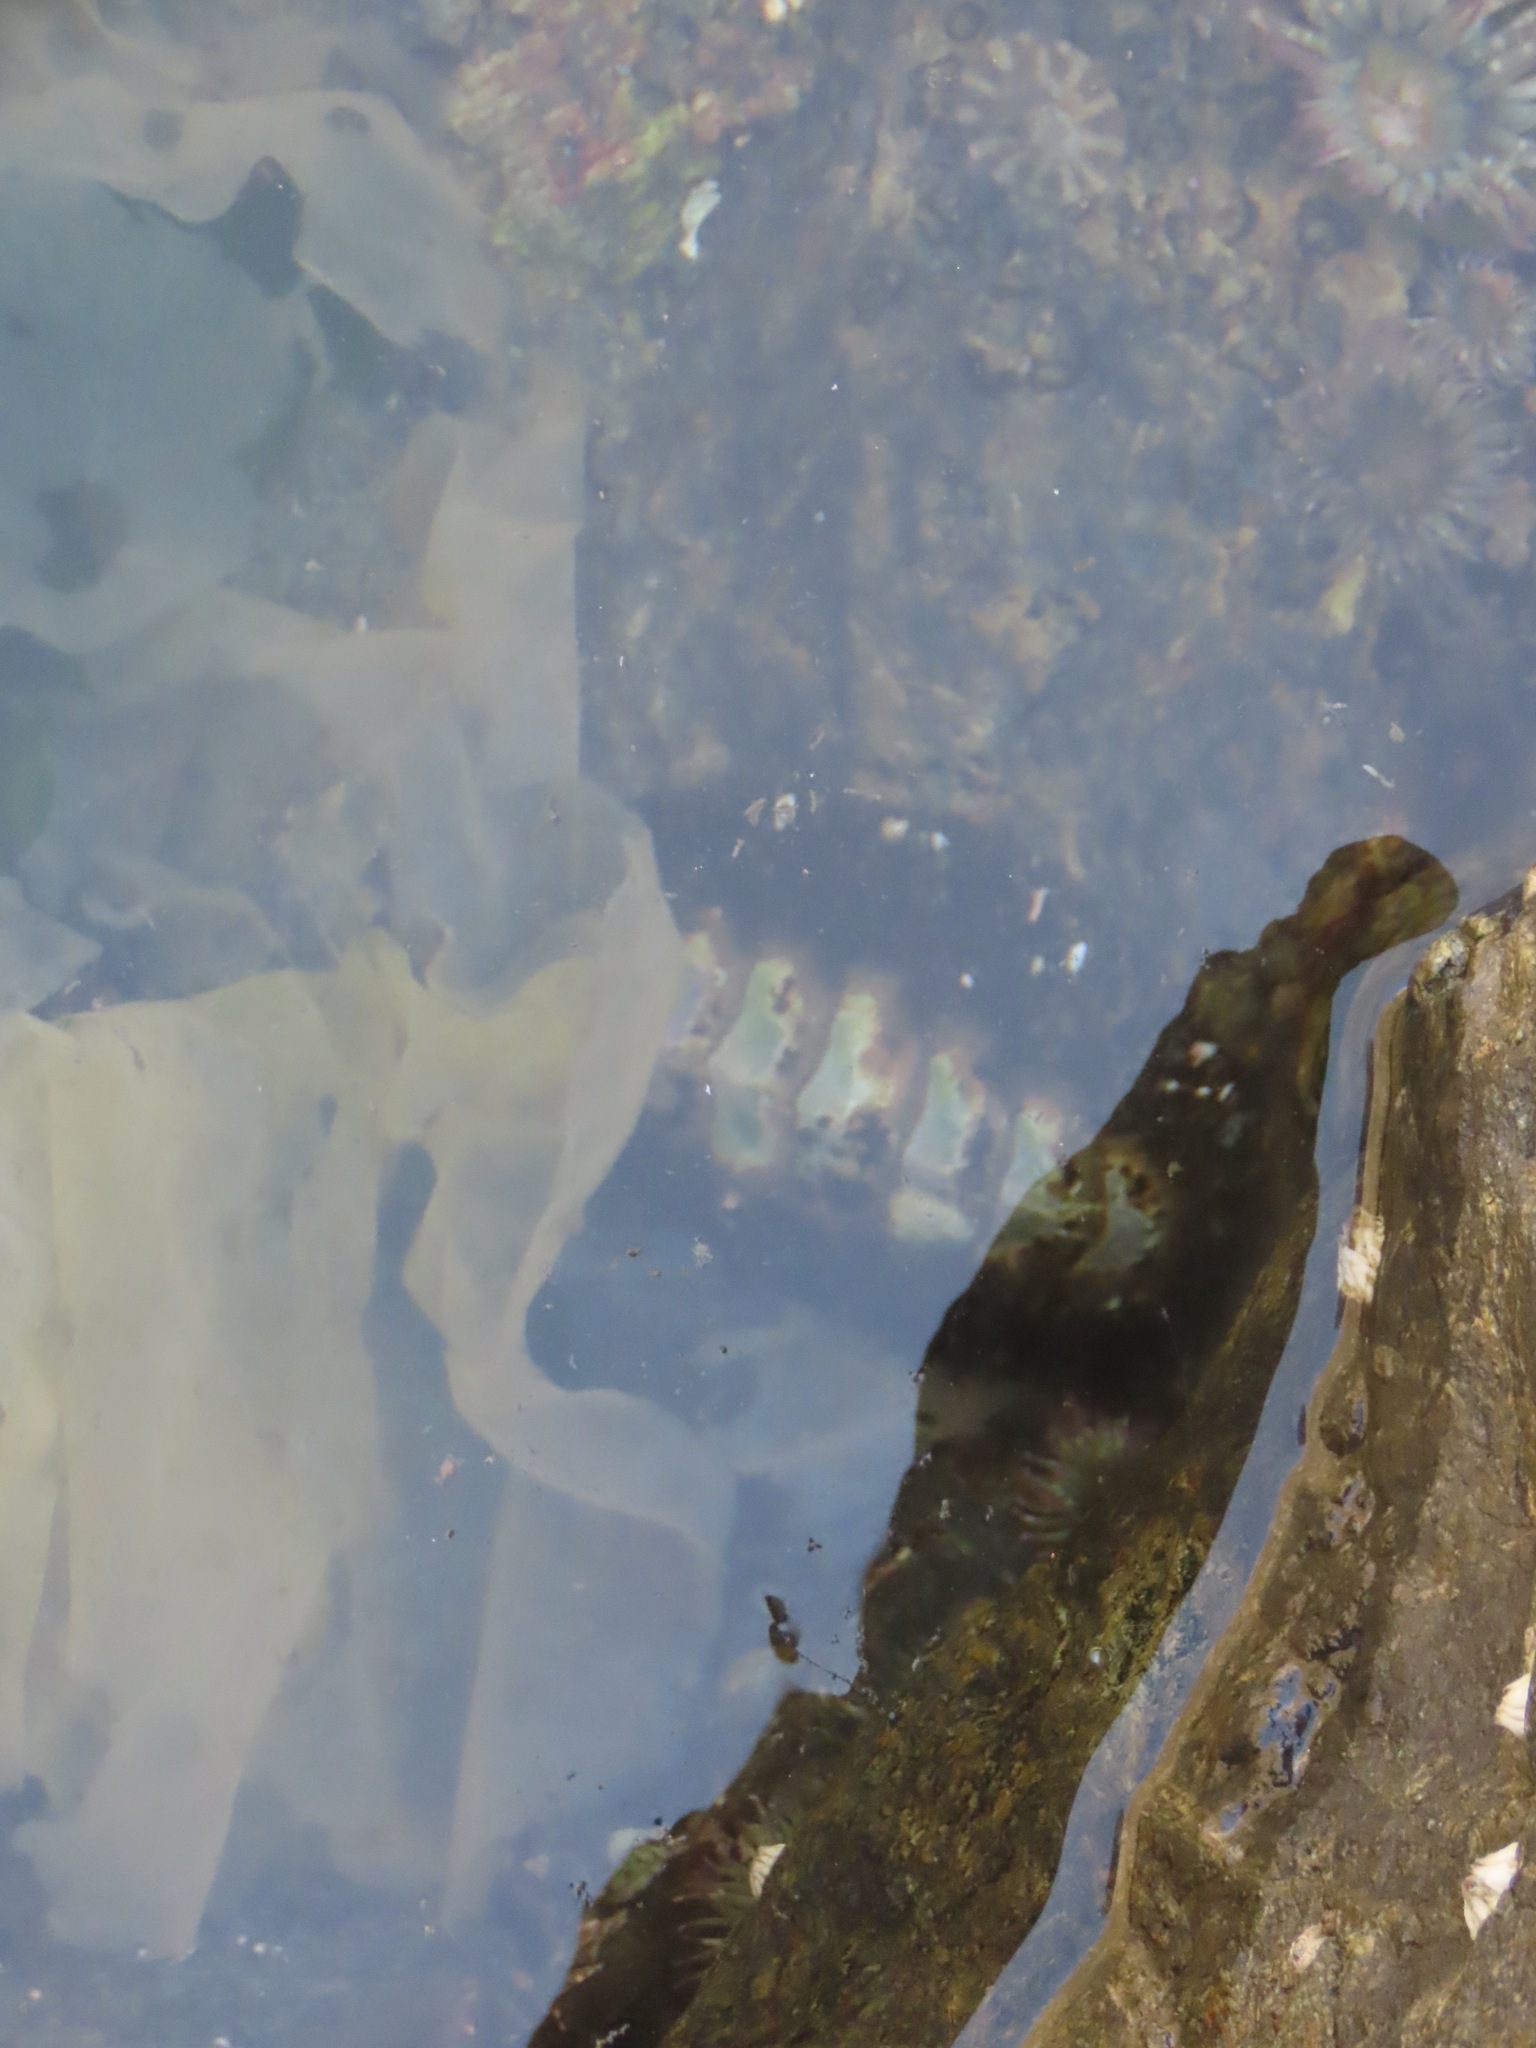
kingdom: Animalia
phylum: Mollusca
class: Polyplacophora
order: Chitonida
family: Mopaliidae
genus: Mopalia
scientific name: Mopalia muscosa
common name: Mossy chiton
